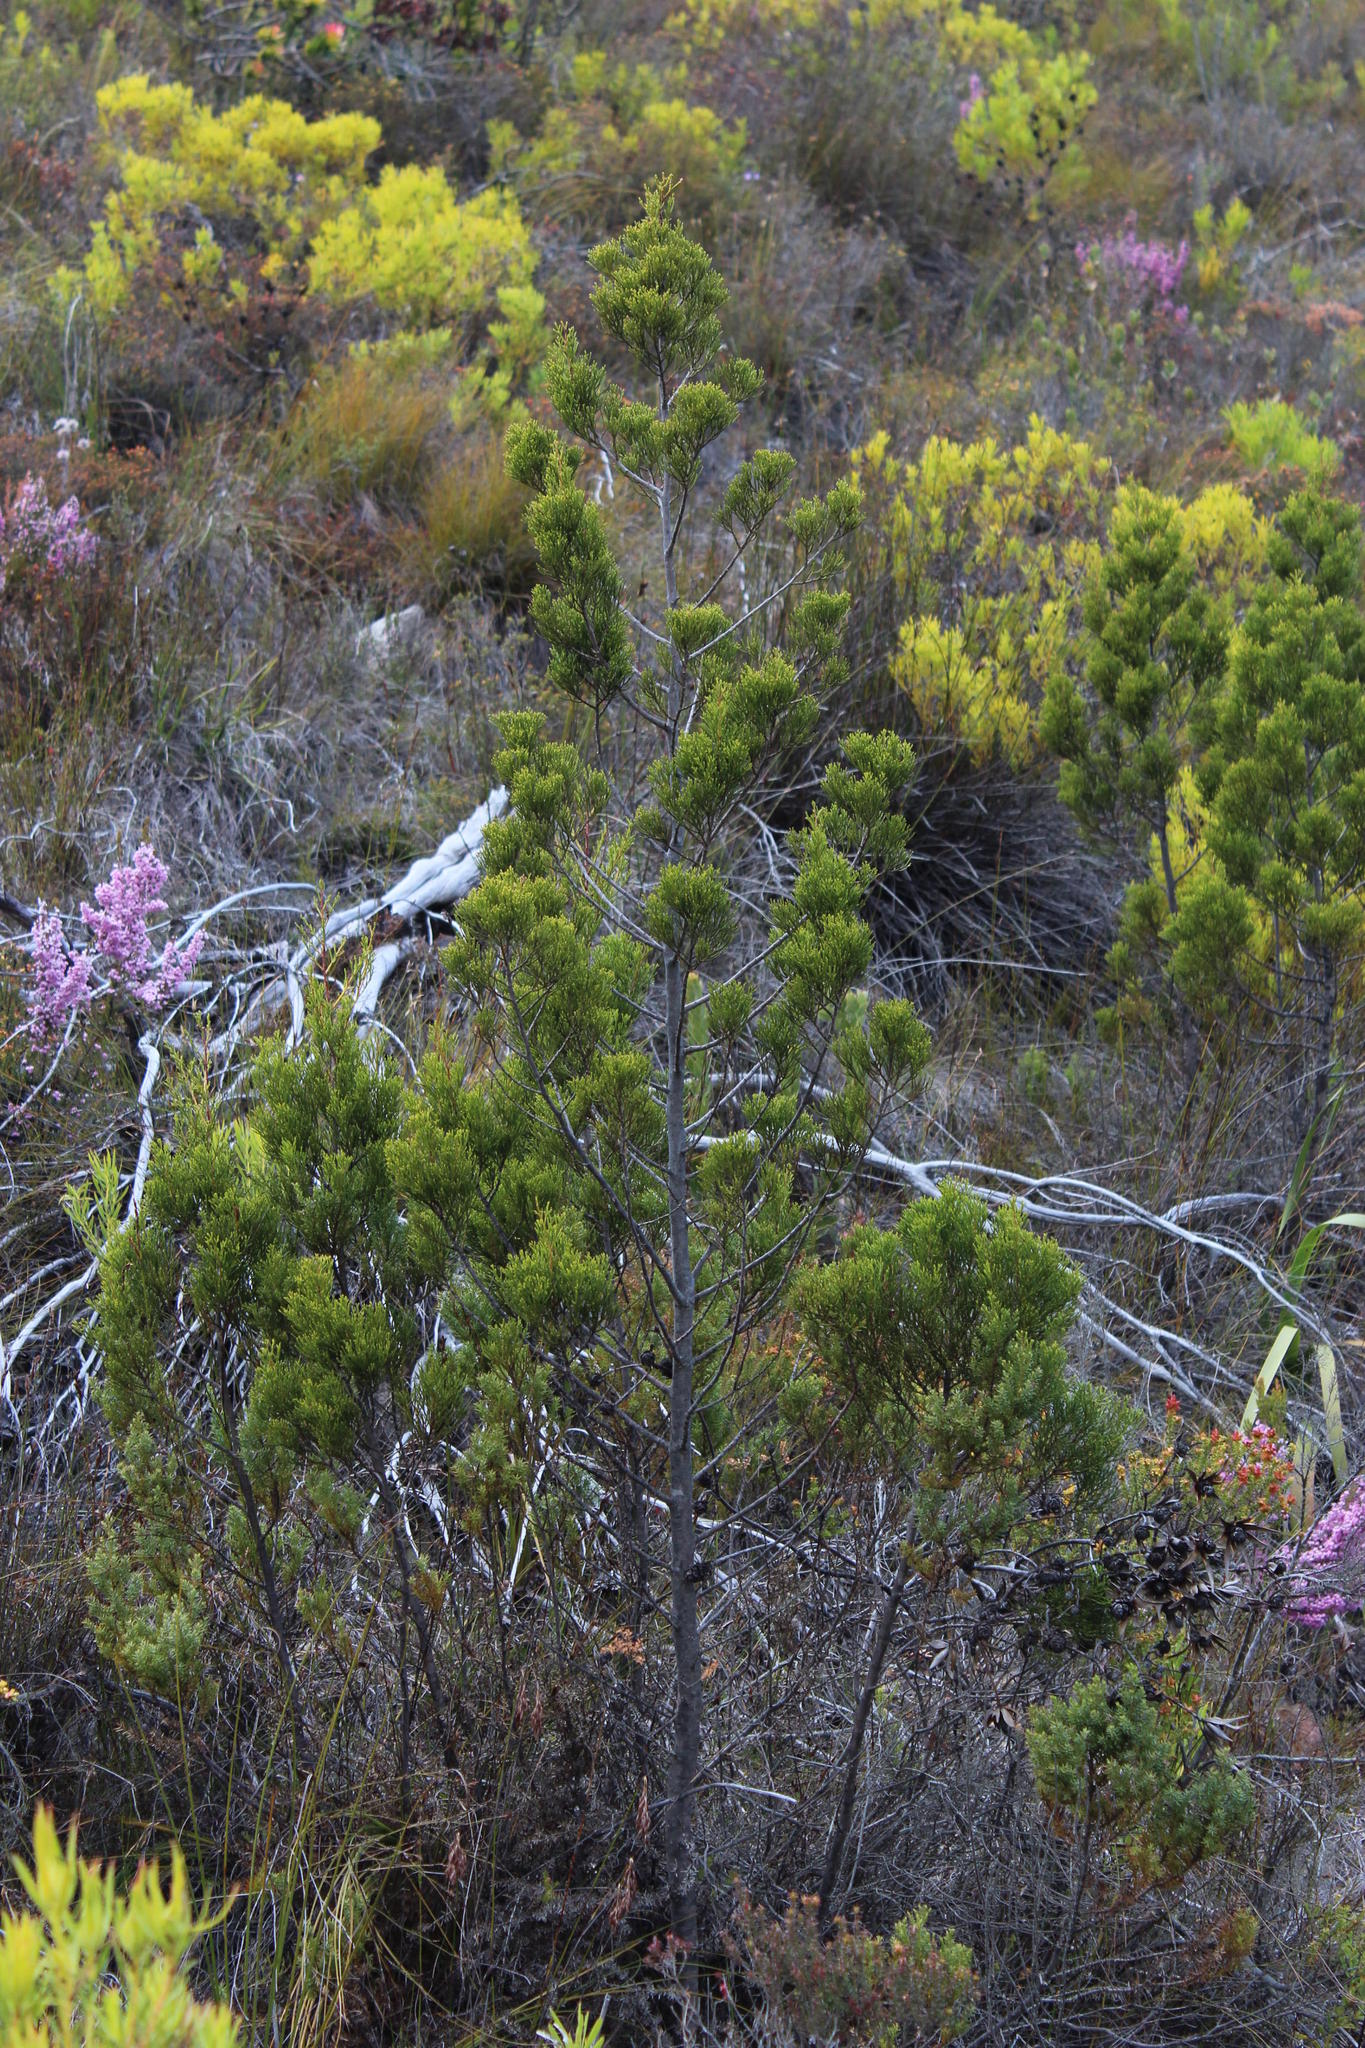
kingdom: Plantae
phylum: Tracheophyta
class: Pinopsida
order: Pinales
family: Cupressaceae
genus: Widdringtonia
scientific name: Widdringtonia nodiflora
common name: Cape cypress
